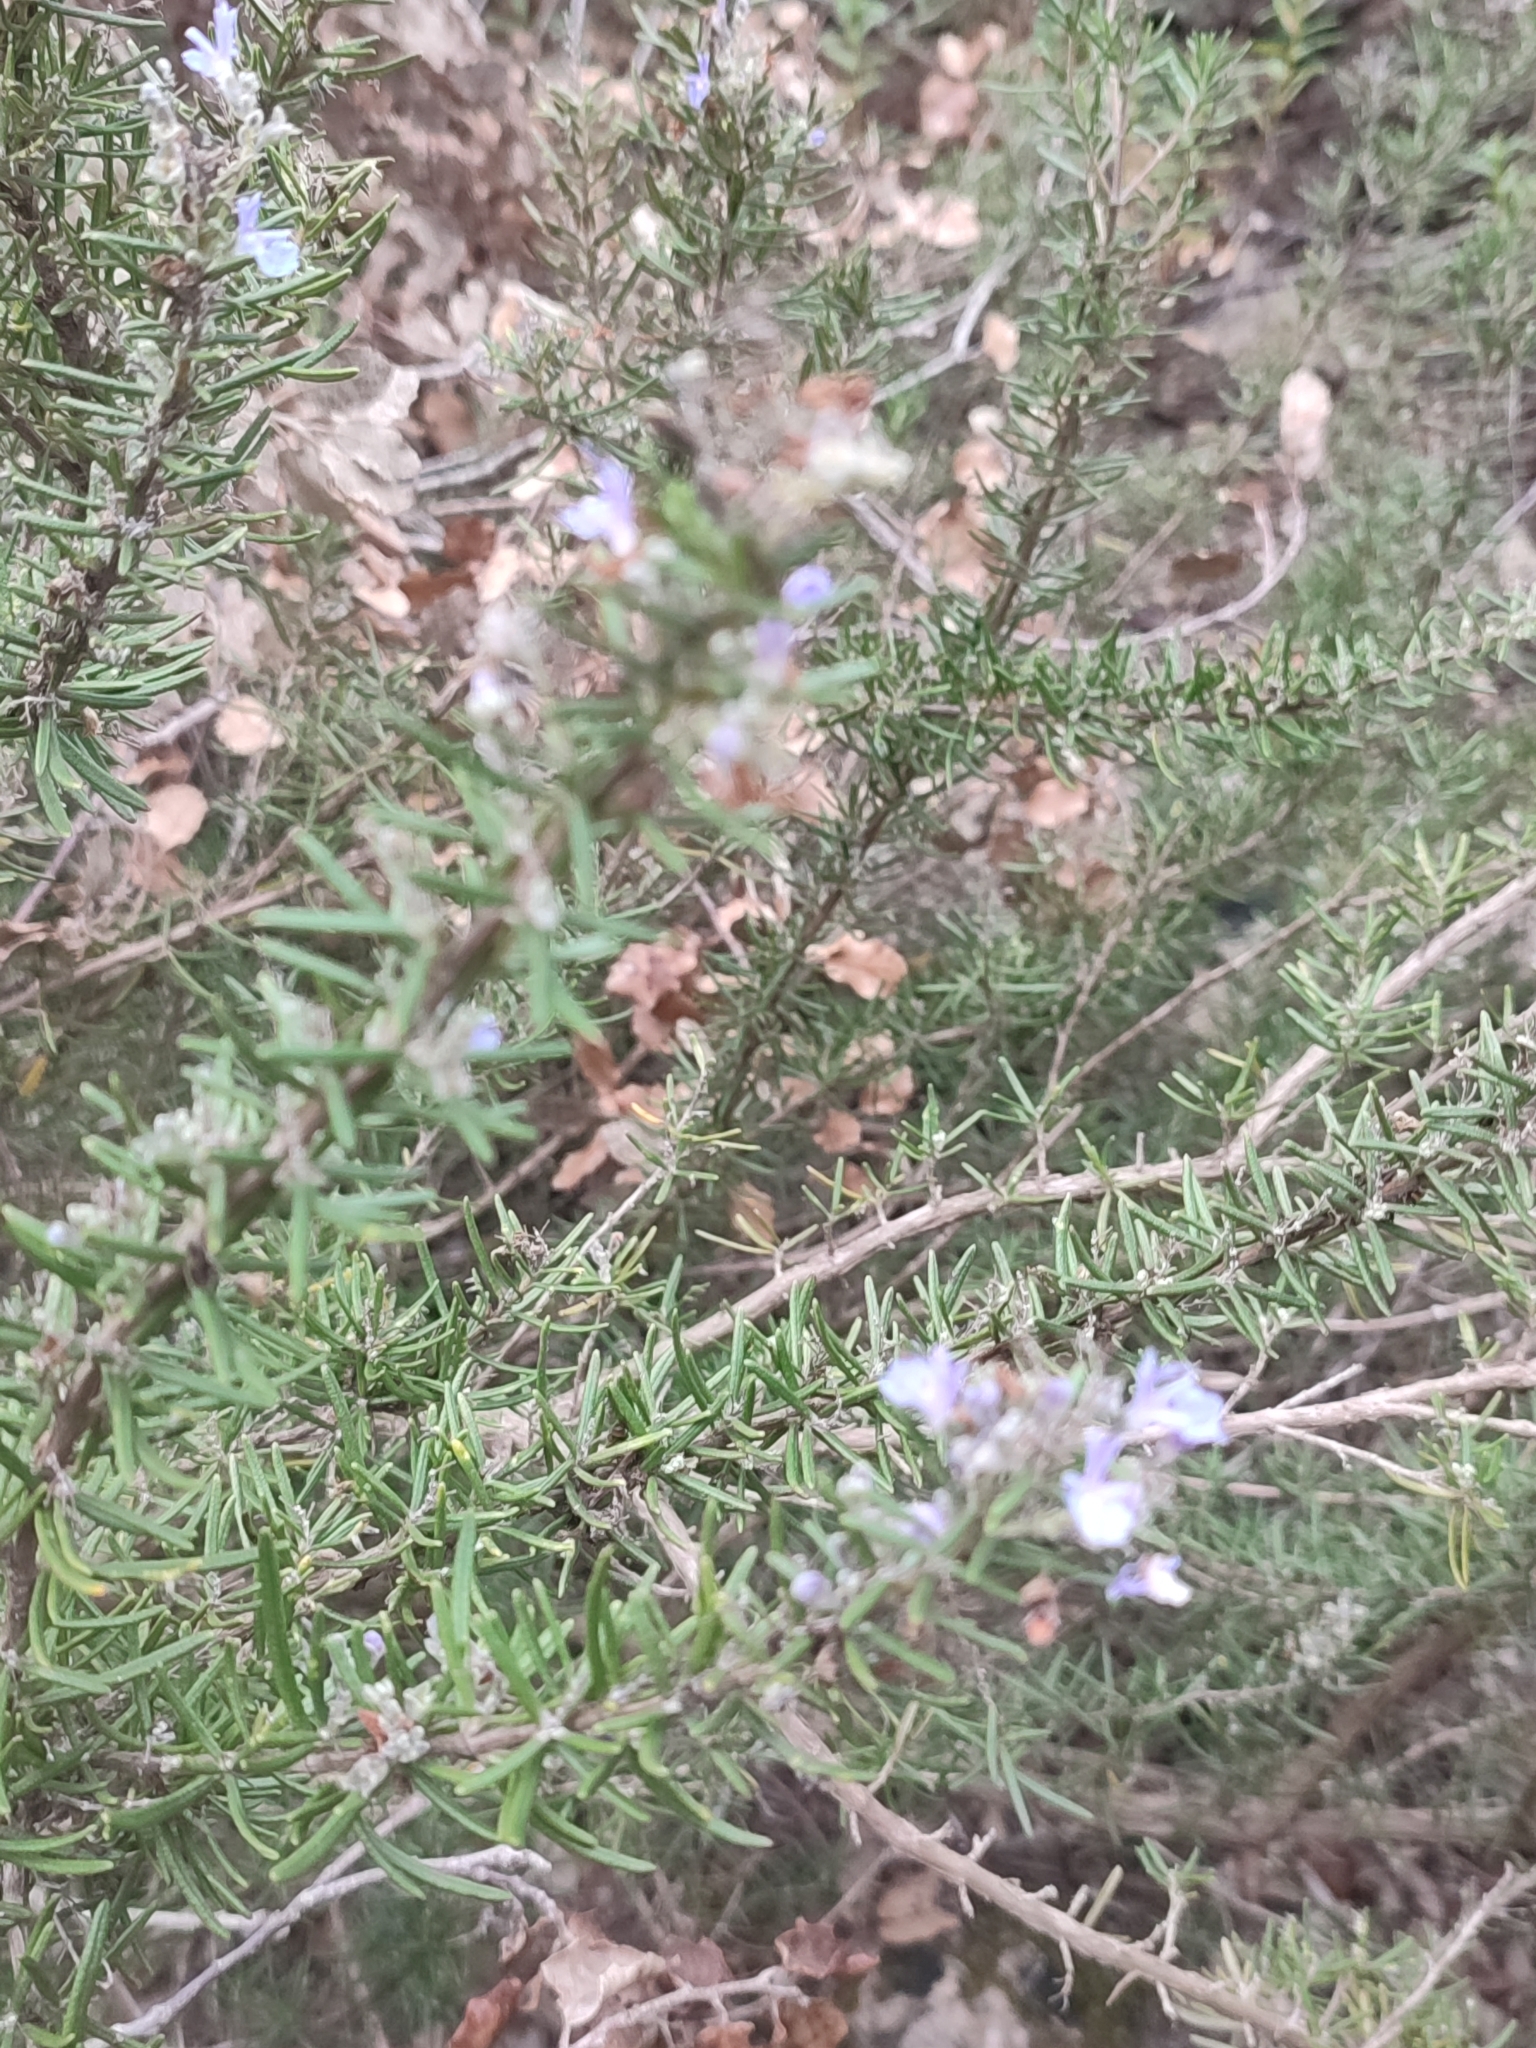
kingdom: Plantae
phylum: Tracheophyta
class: Magnoliopsida
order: Lamiales
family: Lamiaceae
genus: Salvia
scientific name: Salvia rosmarinus
